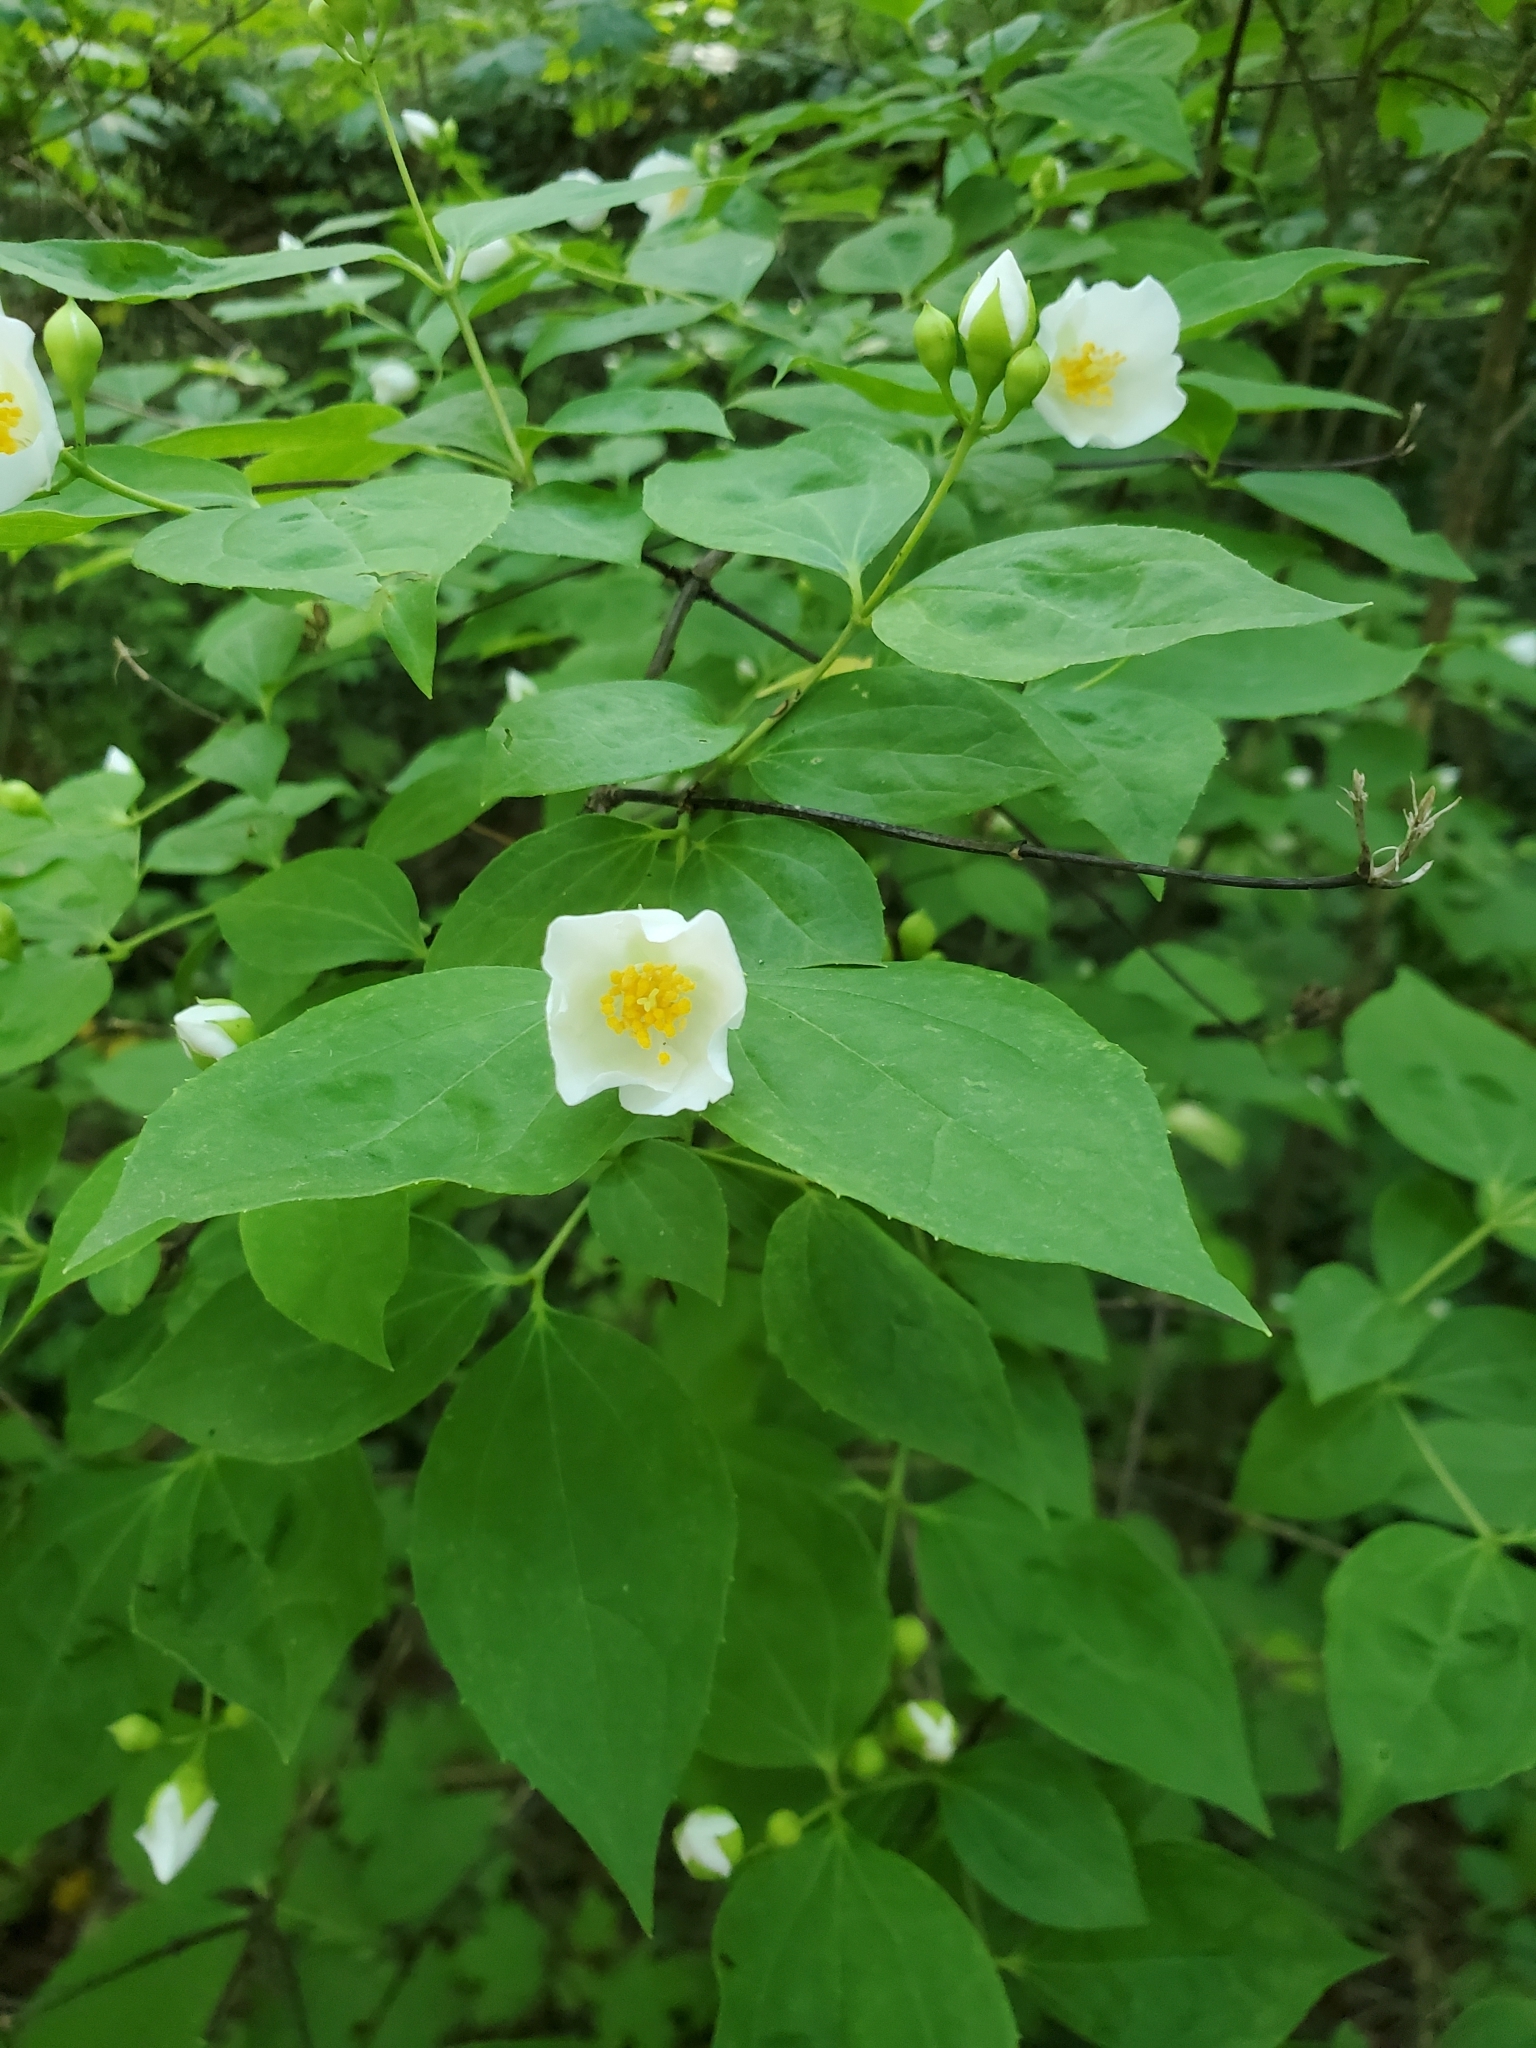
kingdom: Plantae
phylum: Tracheophyta
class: Magnoliopsida
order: Cornales
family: Hydrangeaceae
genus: Philadelphus
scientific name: Philadelphus coronarius
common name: Mock orange
